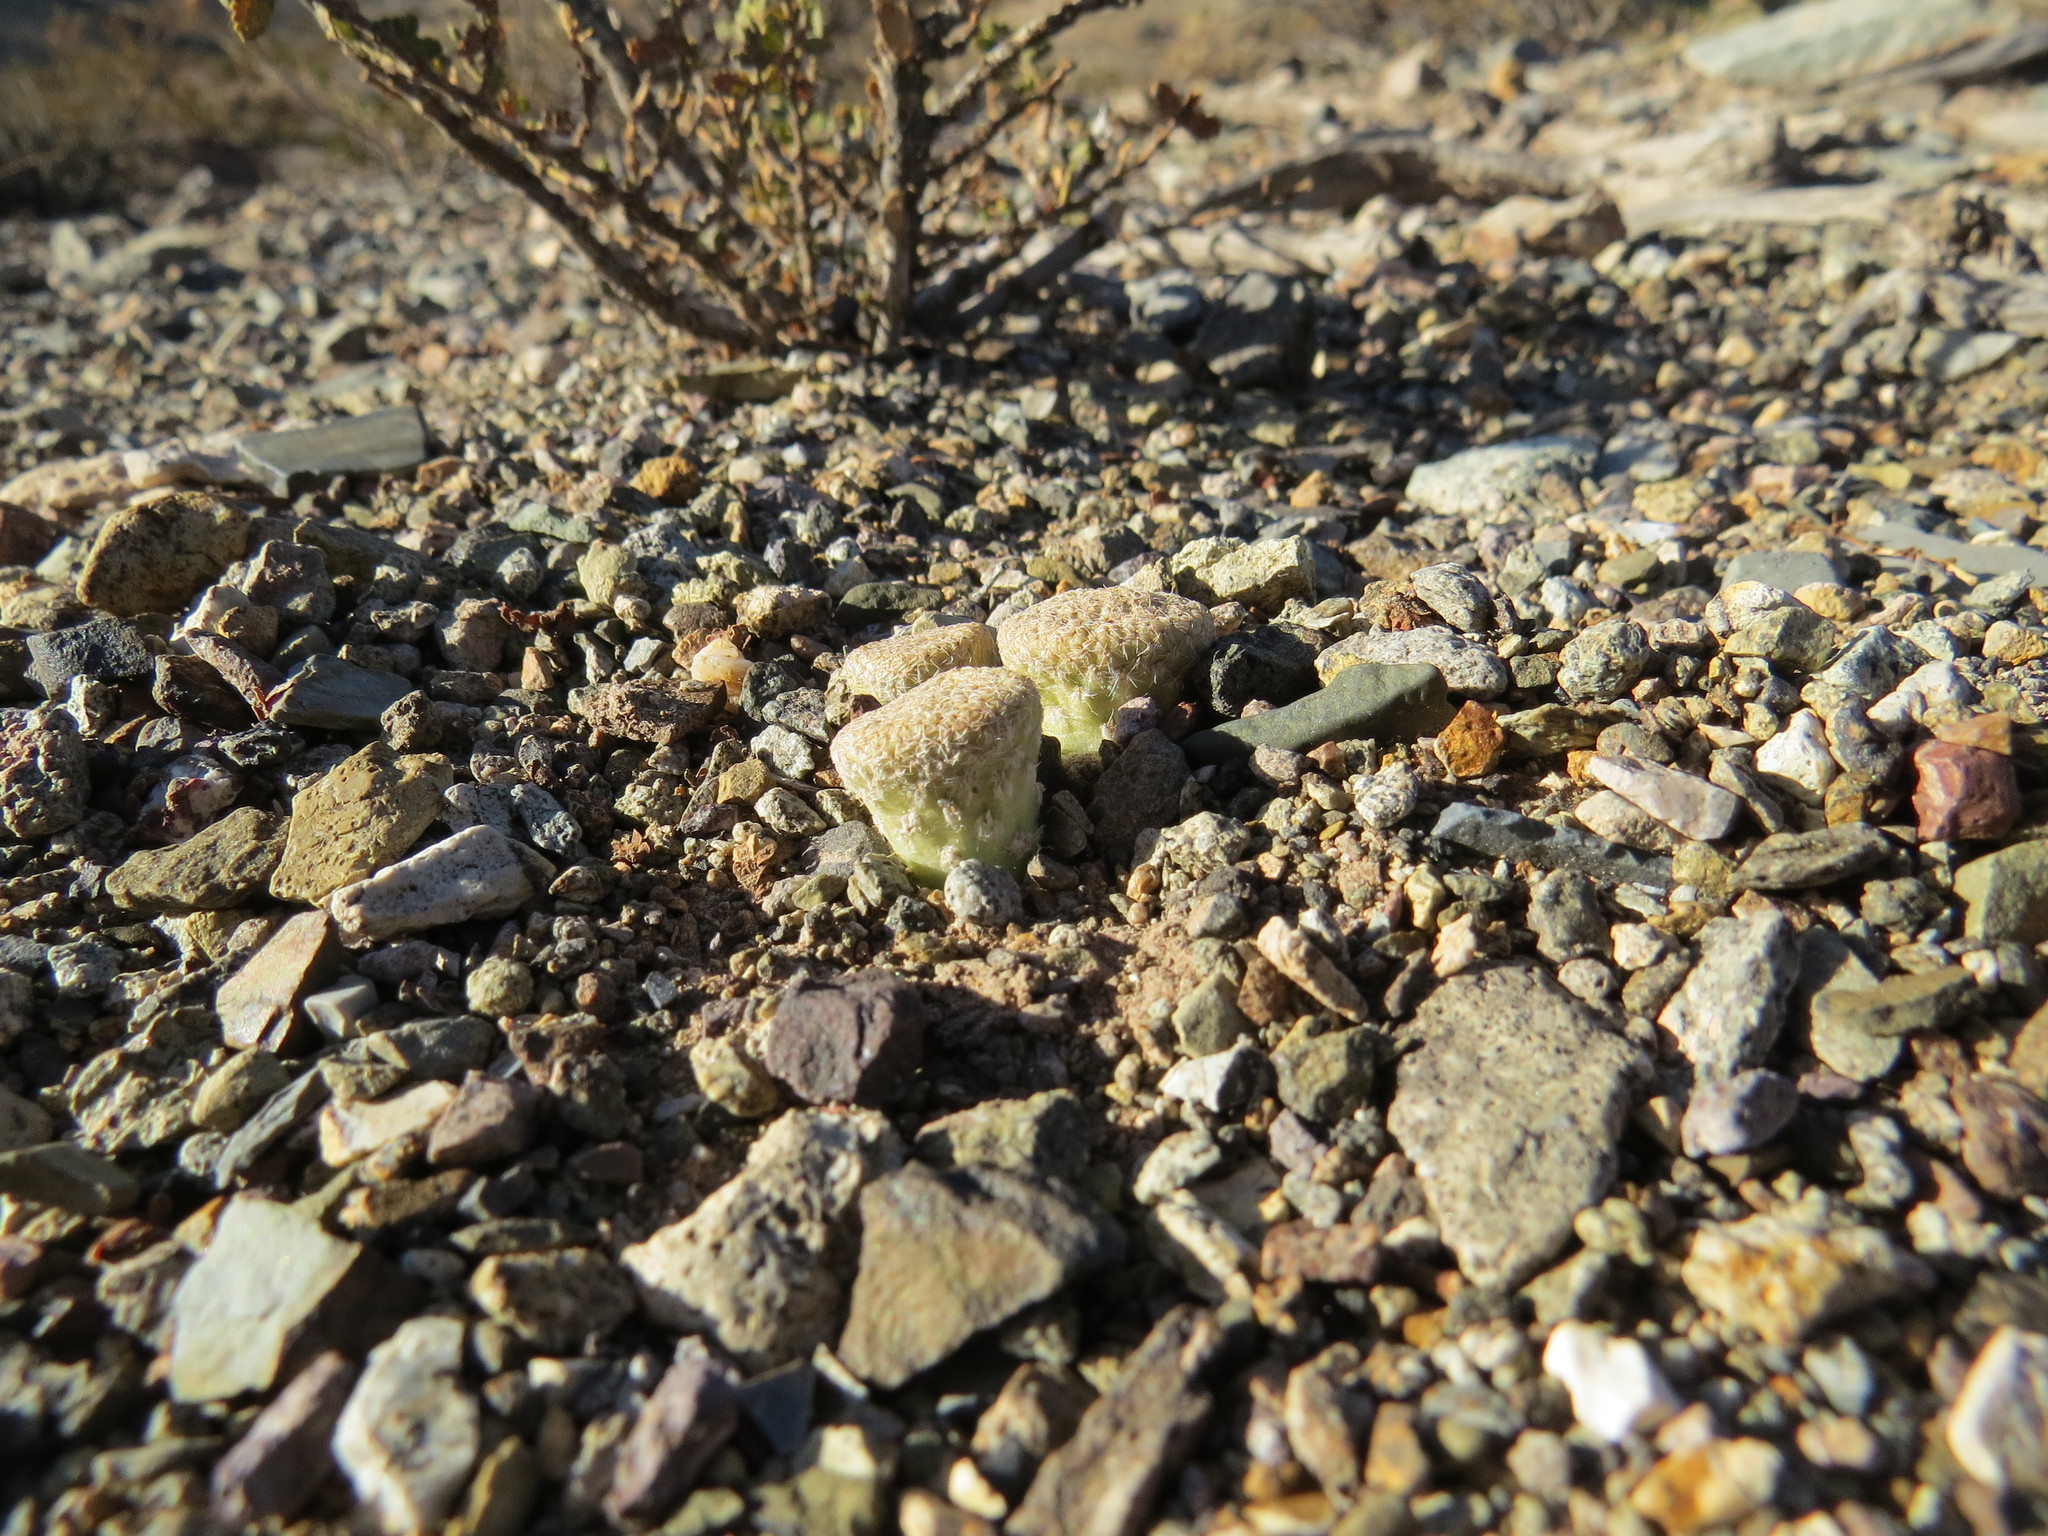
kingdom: Plantae
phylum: Tracheophyta
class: Magnoliopsida
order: Caryophyllales
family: Cactaceae
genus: Puna
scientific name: Puna clavarioides
